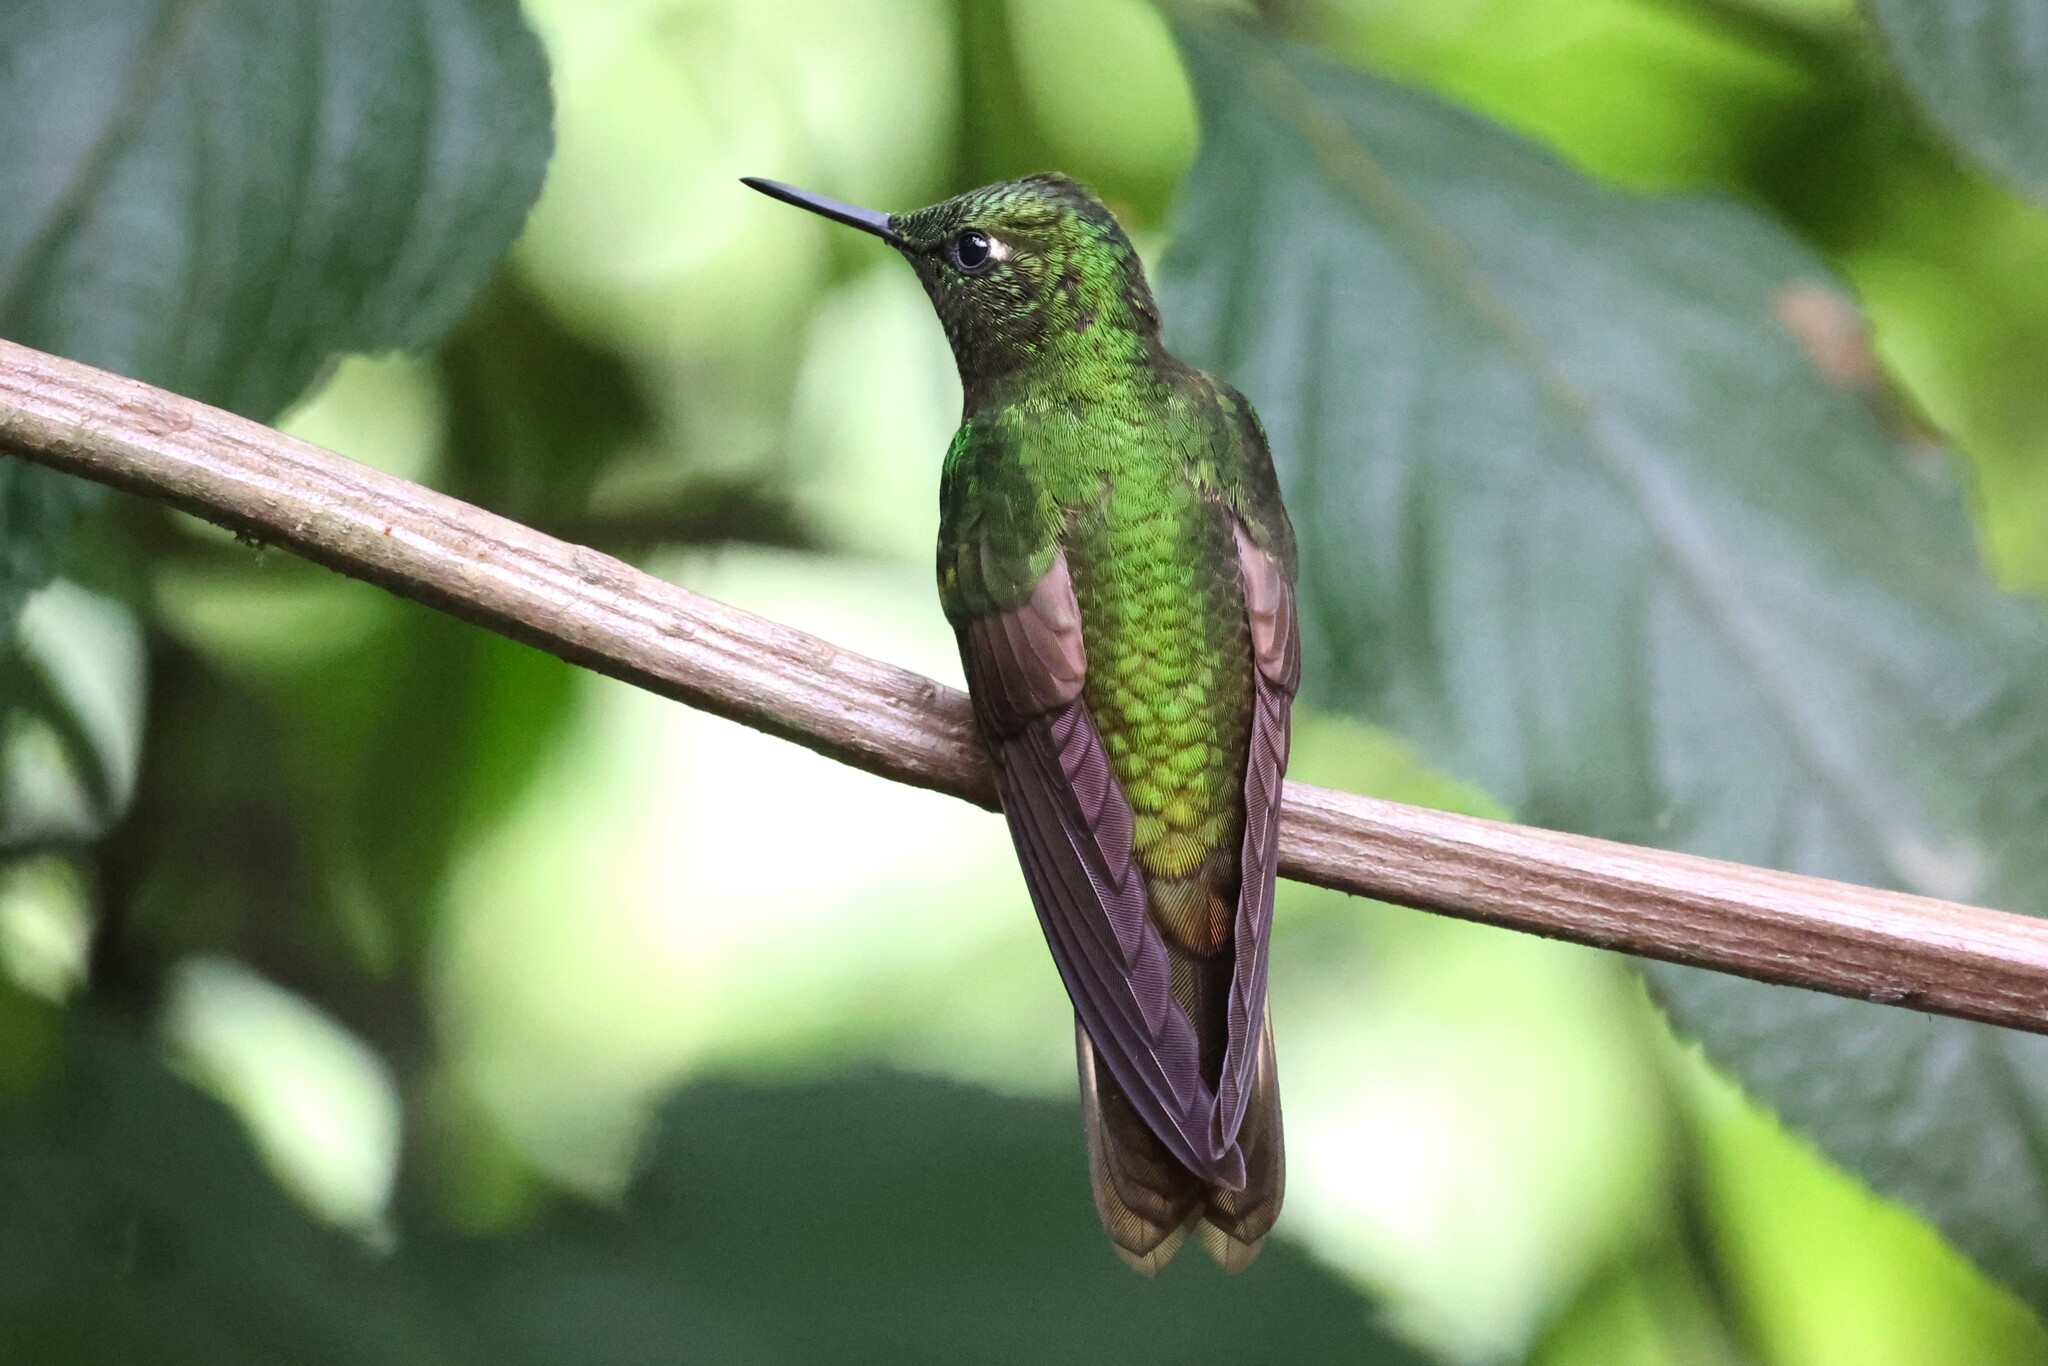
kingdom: Animalia
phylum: Chordata
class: Aves
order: Apodiformes
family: Trochilidae
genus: Boissonneaua
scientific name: Boissonneaua flavescens
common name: Buff-tailed coronet
